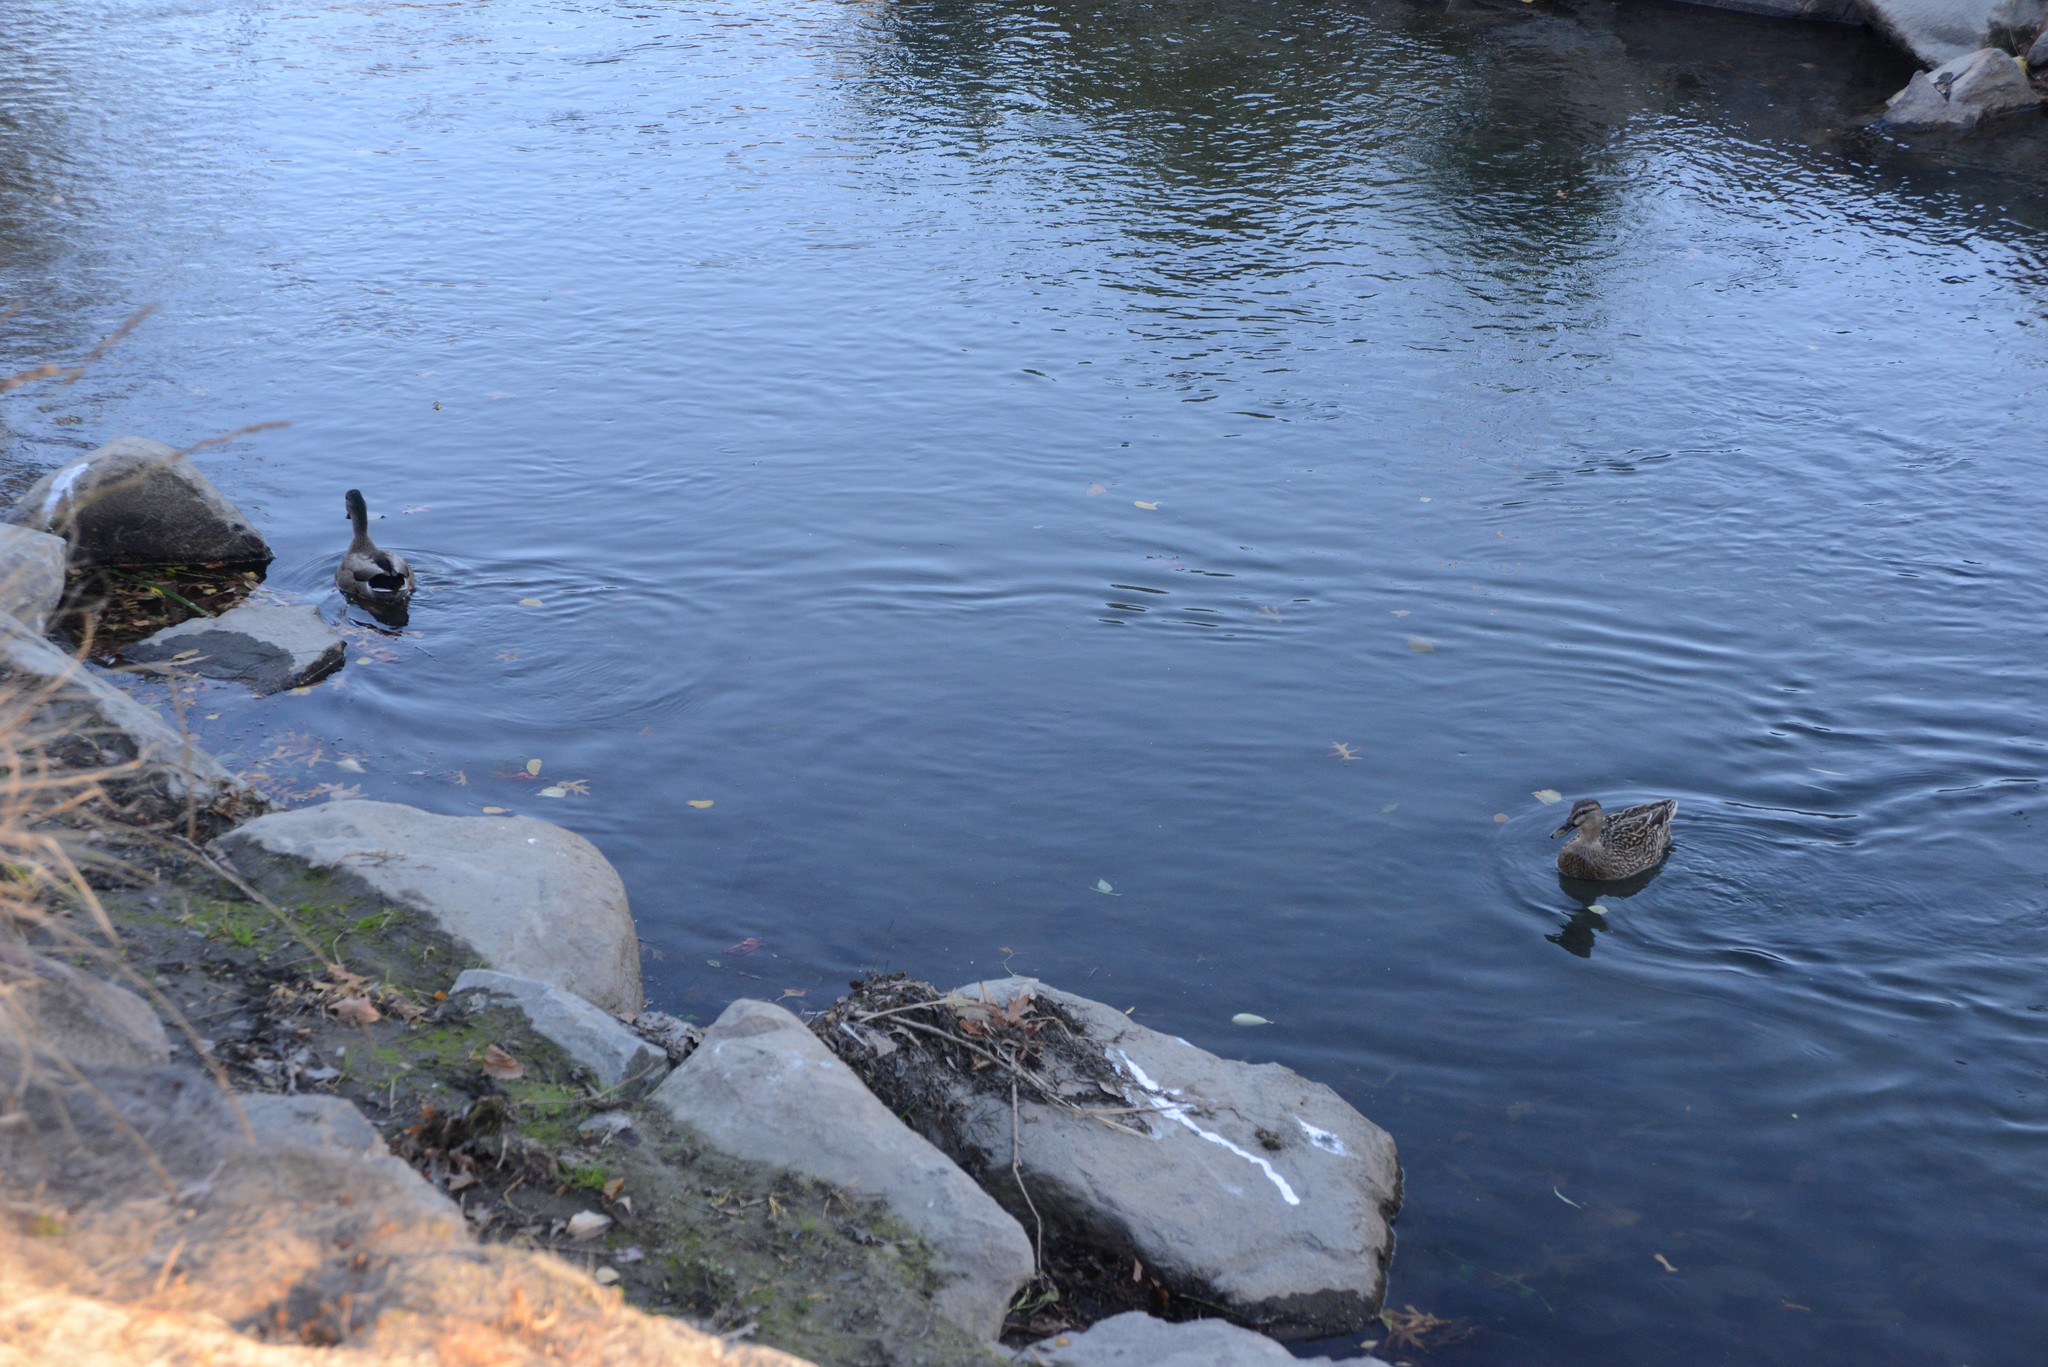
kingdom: Animalia
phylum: Chordata
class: Aves
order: Anseriformes
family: Anatidae
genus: Anas
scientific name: Anas platyrhynchos
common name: Mallard
